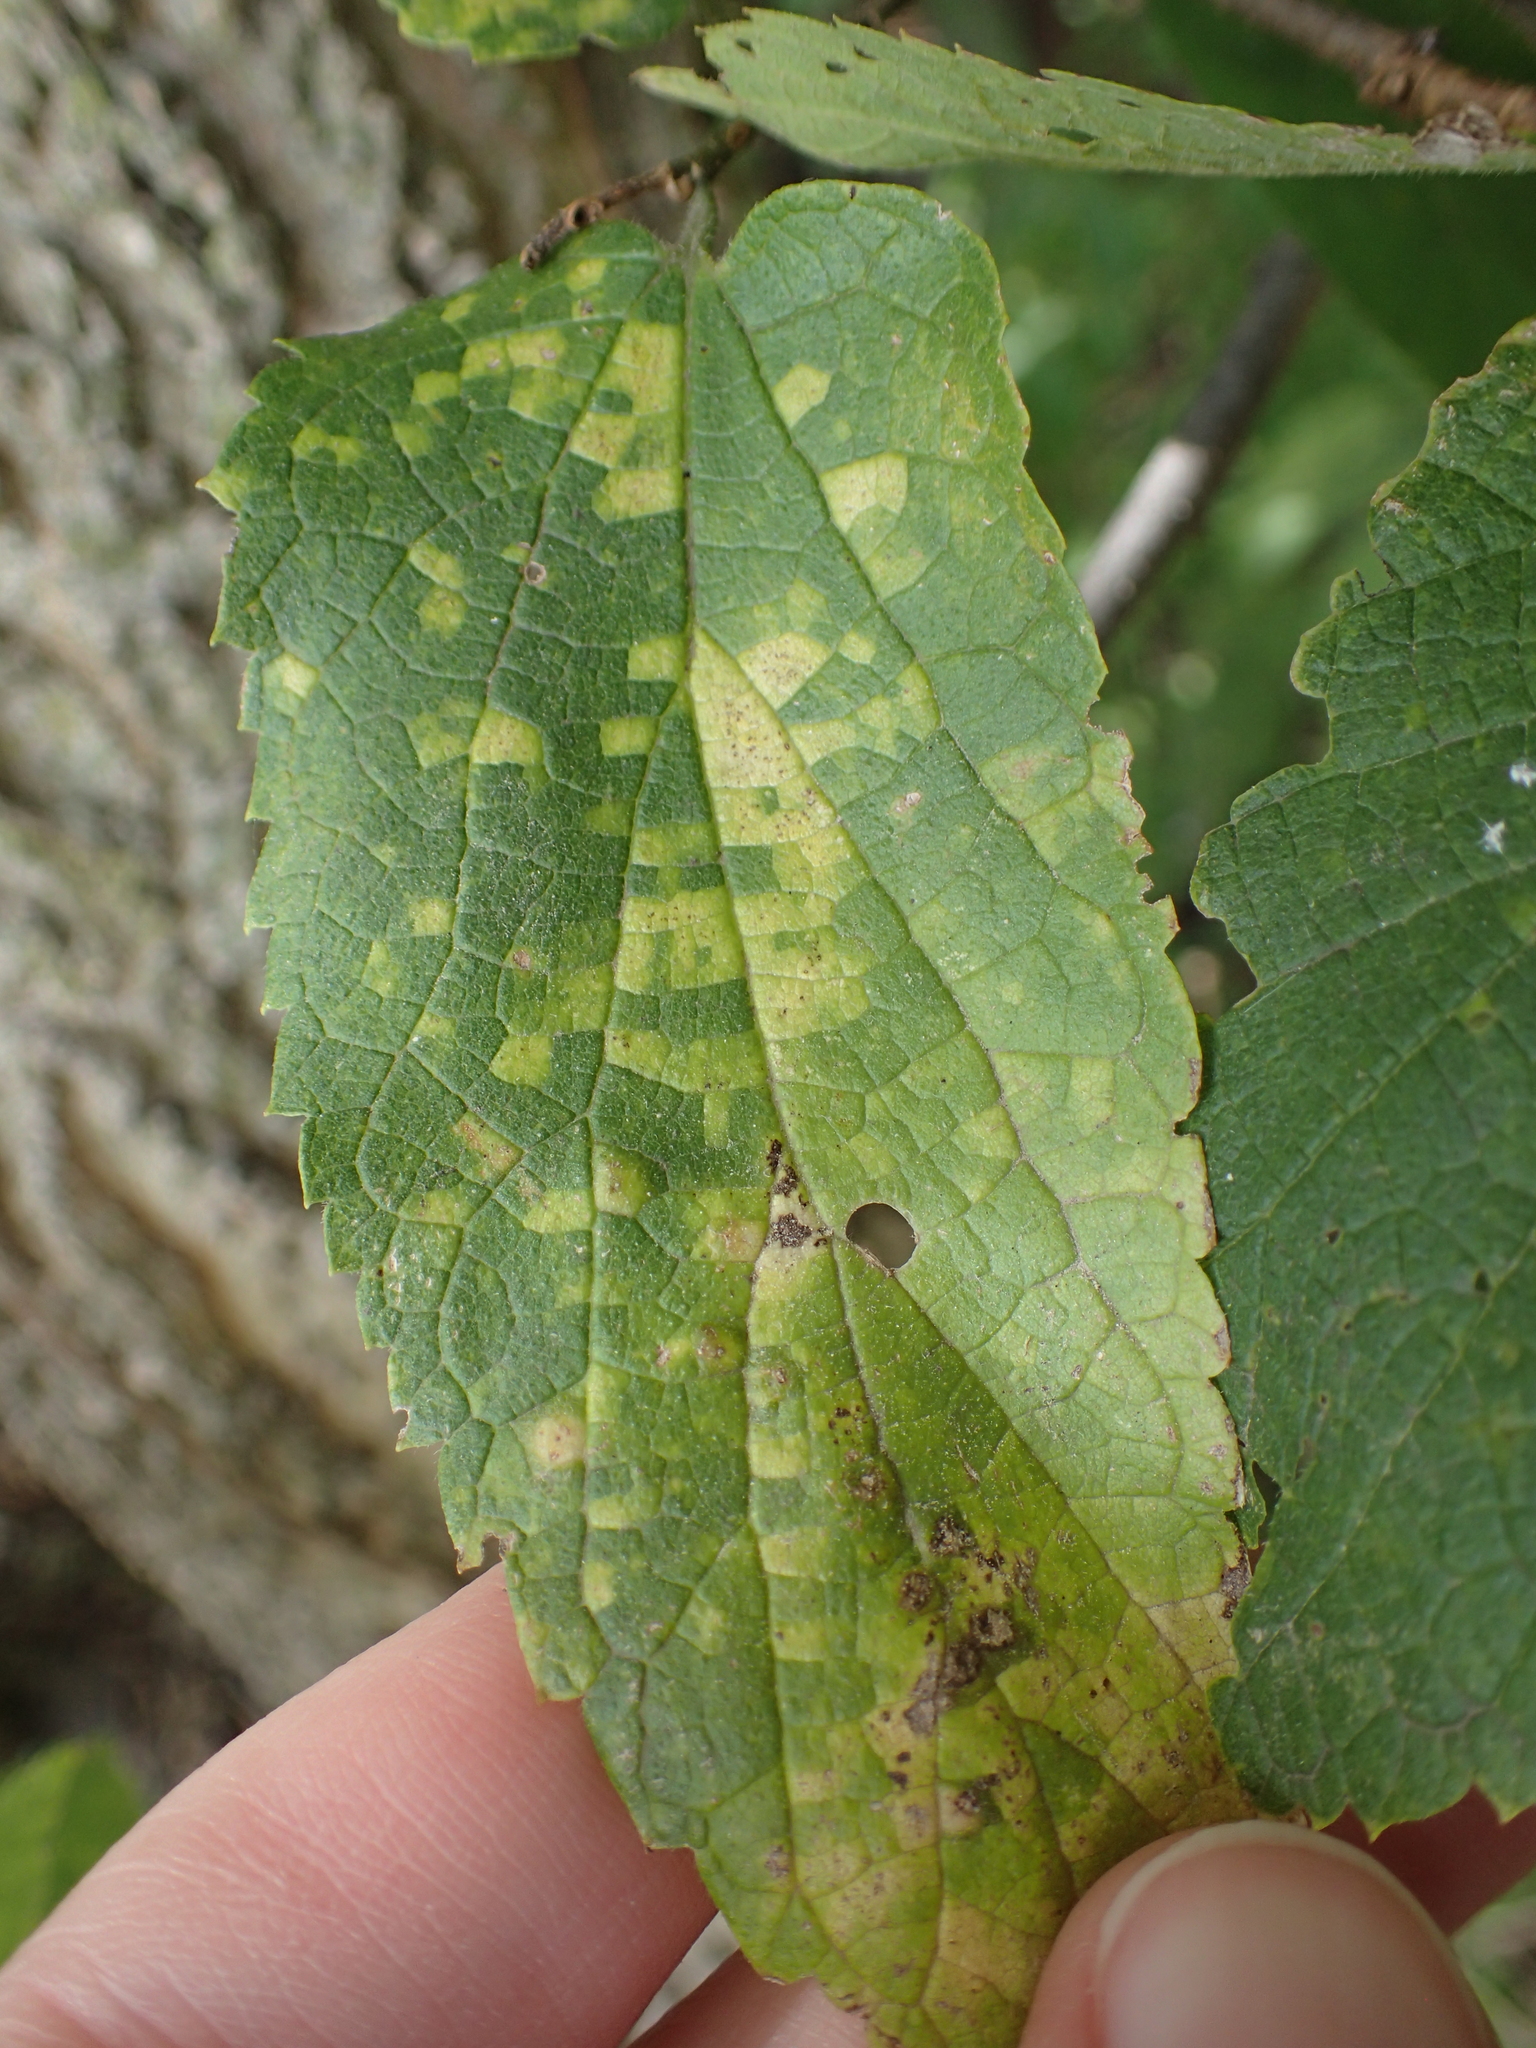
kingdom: Viruses
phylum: Kitrinoviricota
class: Alsuviricetes
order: Martellivirales
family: Closteroviridae
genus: Ampelovirus
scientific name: Ampelovirus
